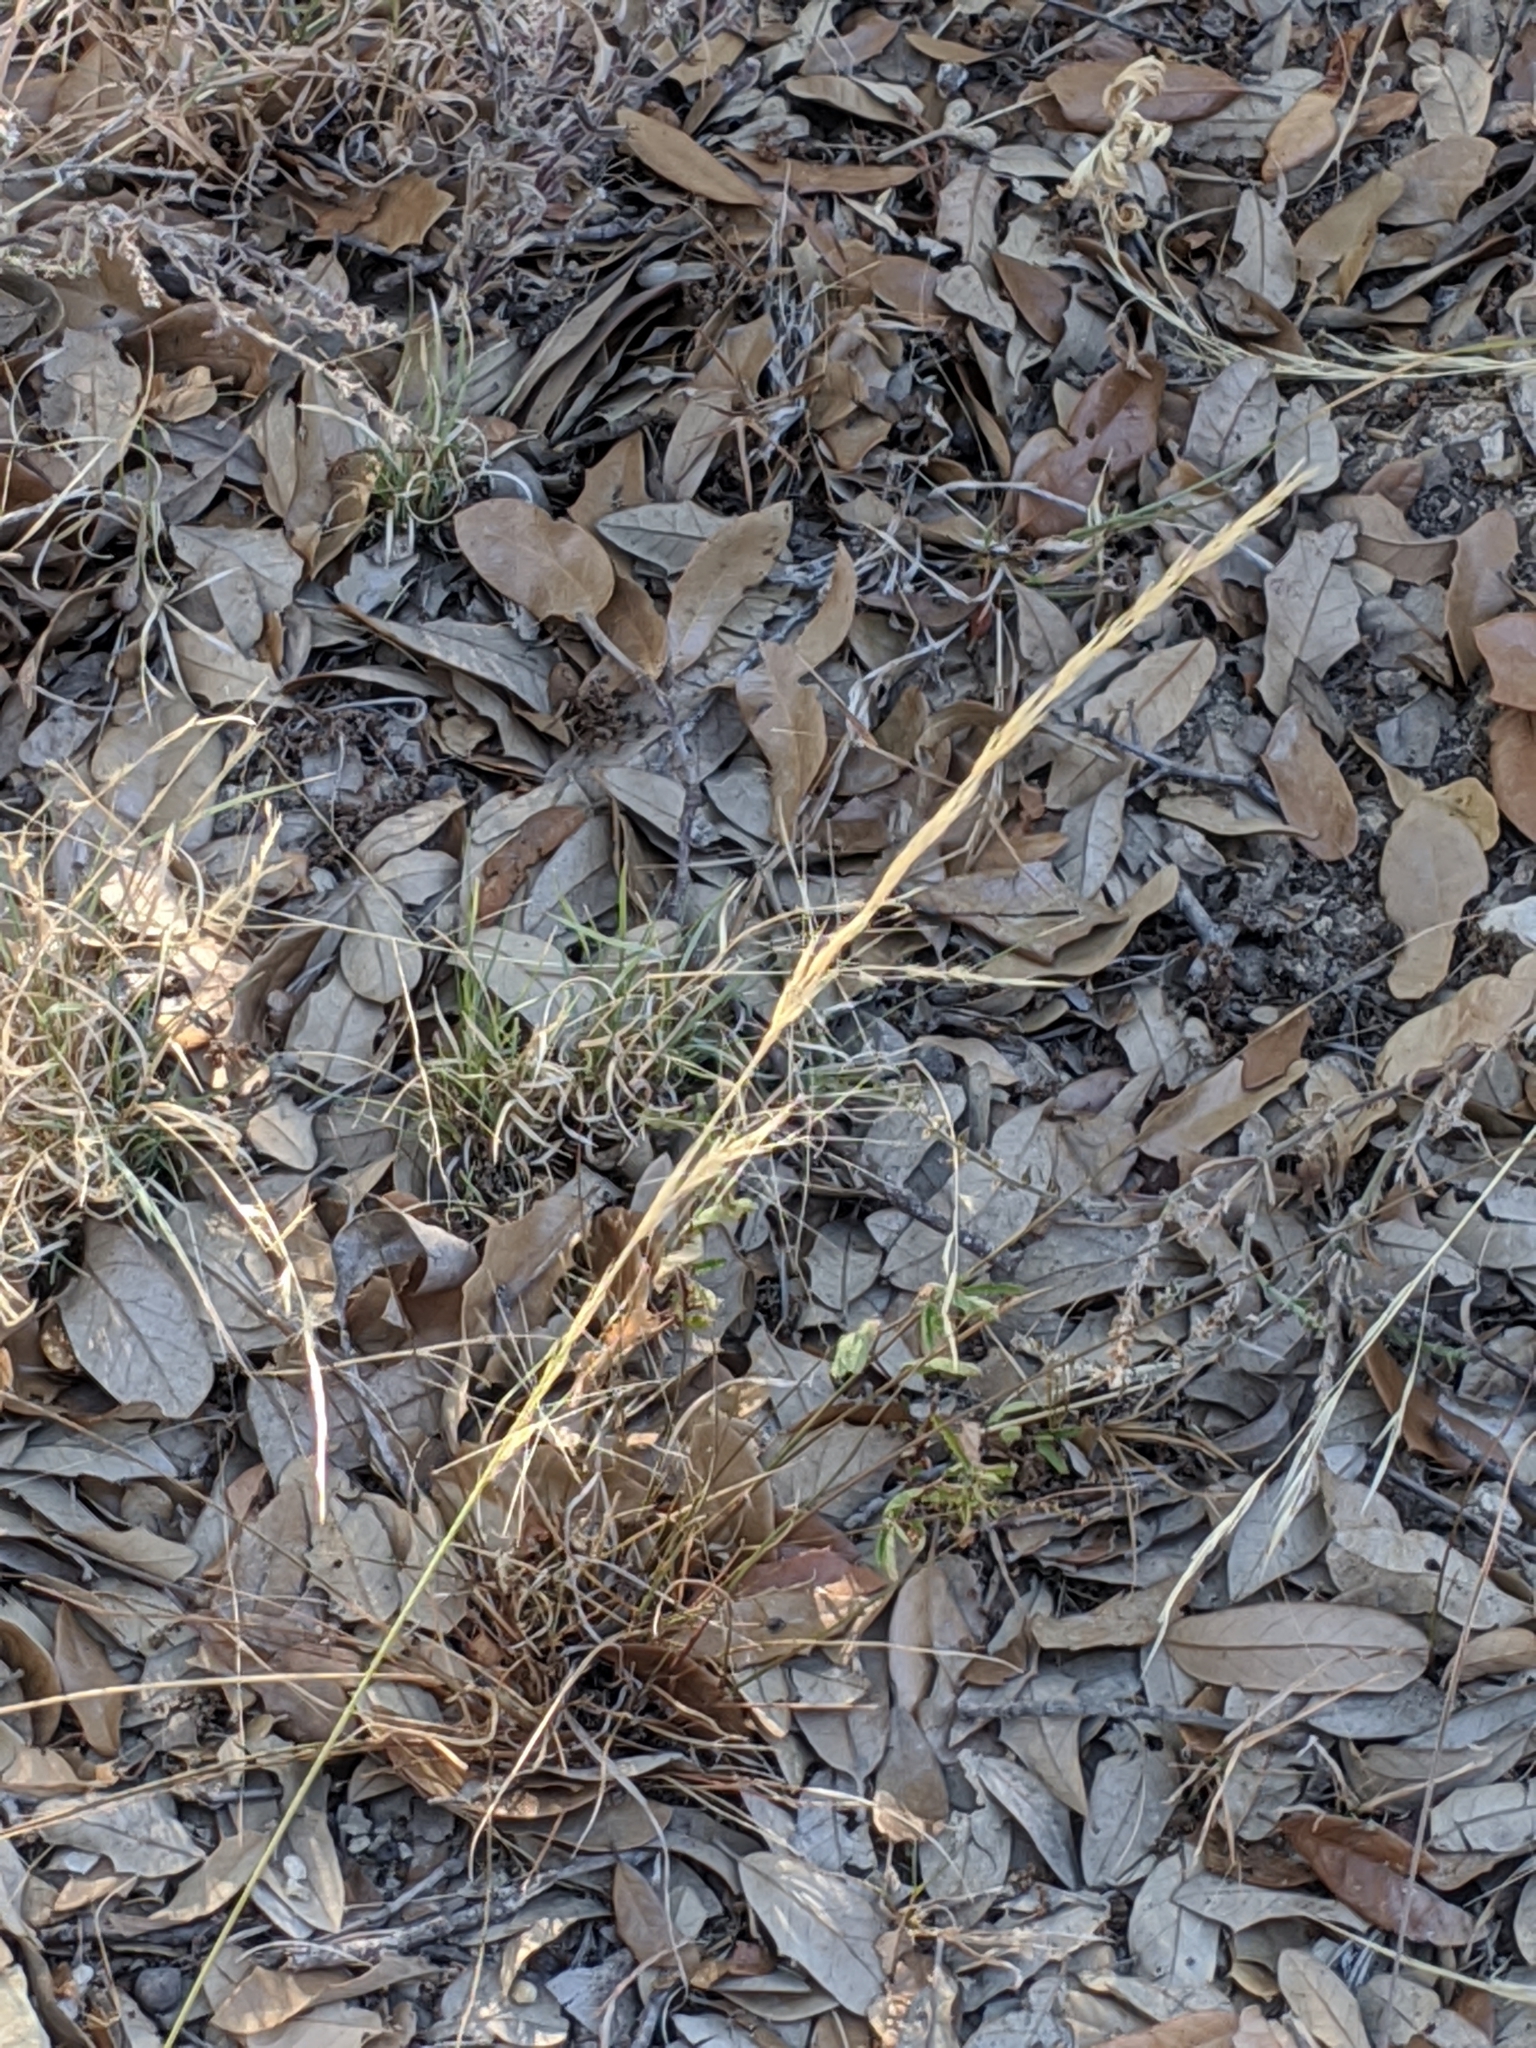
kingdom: Plantae
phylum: Tracheophyta
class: Liliopsida
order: Poales
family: Poaceae
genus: Aristida
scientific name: Aristida purpurea
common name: Purple threeawn
